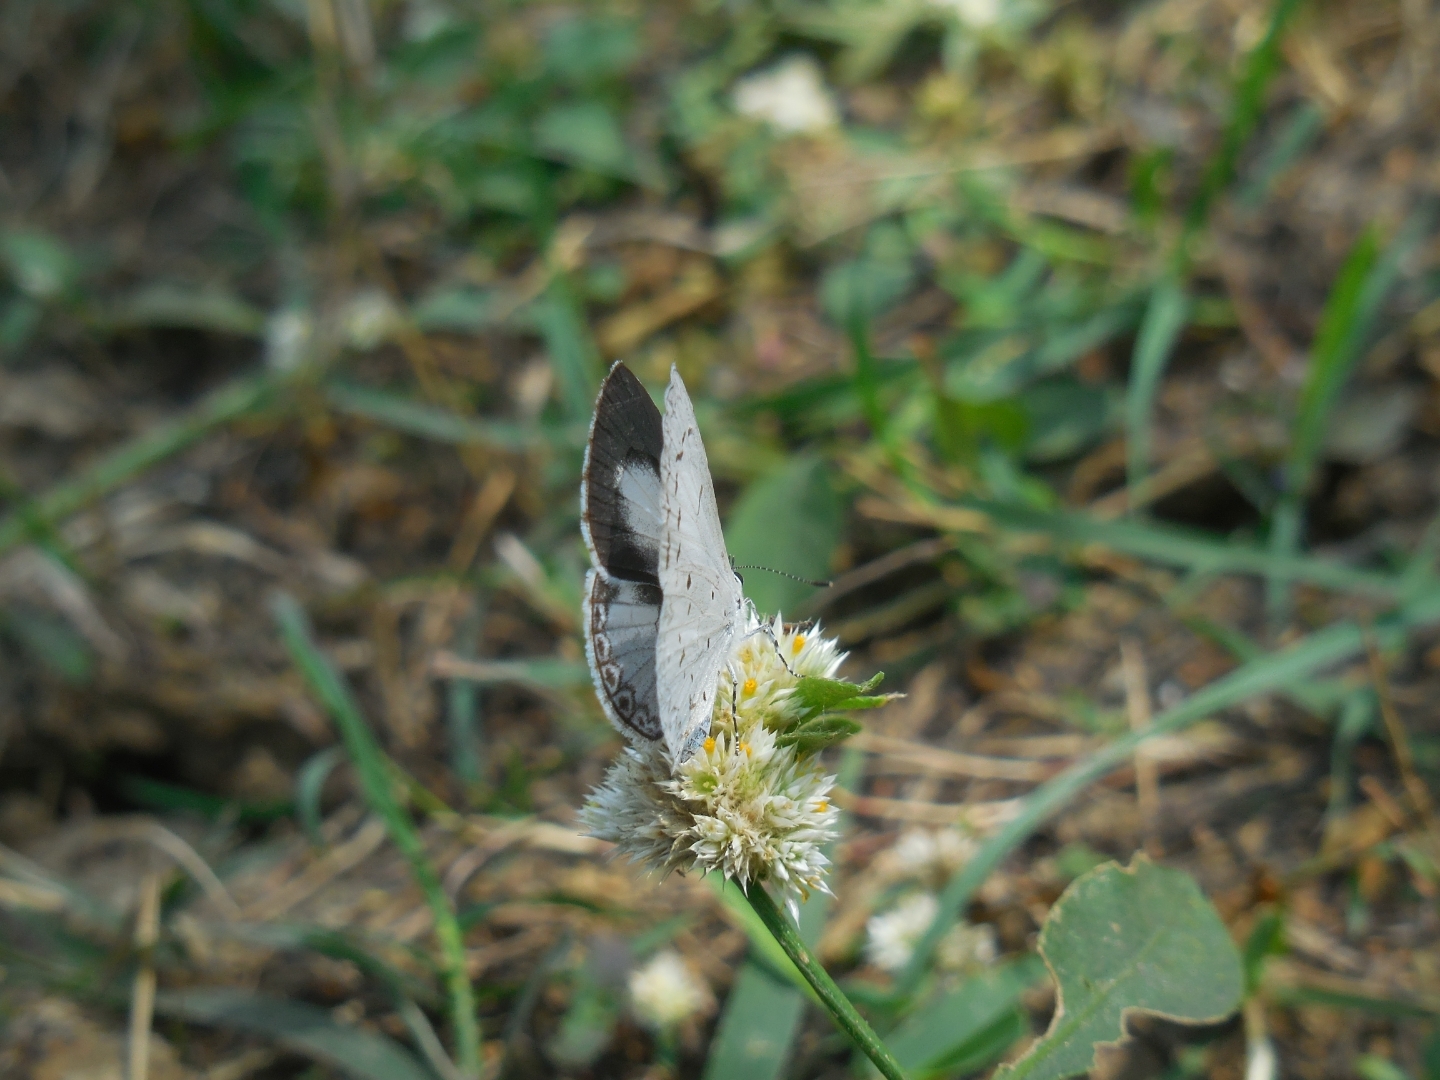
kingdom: Animalia
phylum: Arthropoda
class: Insecta
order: Lepidoptera
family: Lycaenidae
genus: Acytolepis
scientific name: Acytolepis puspa
